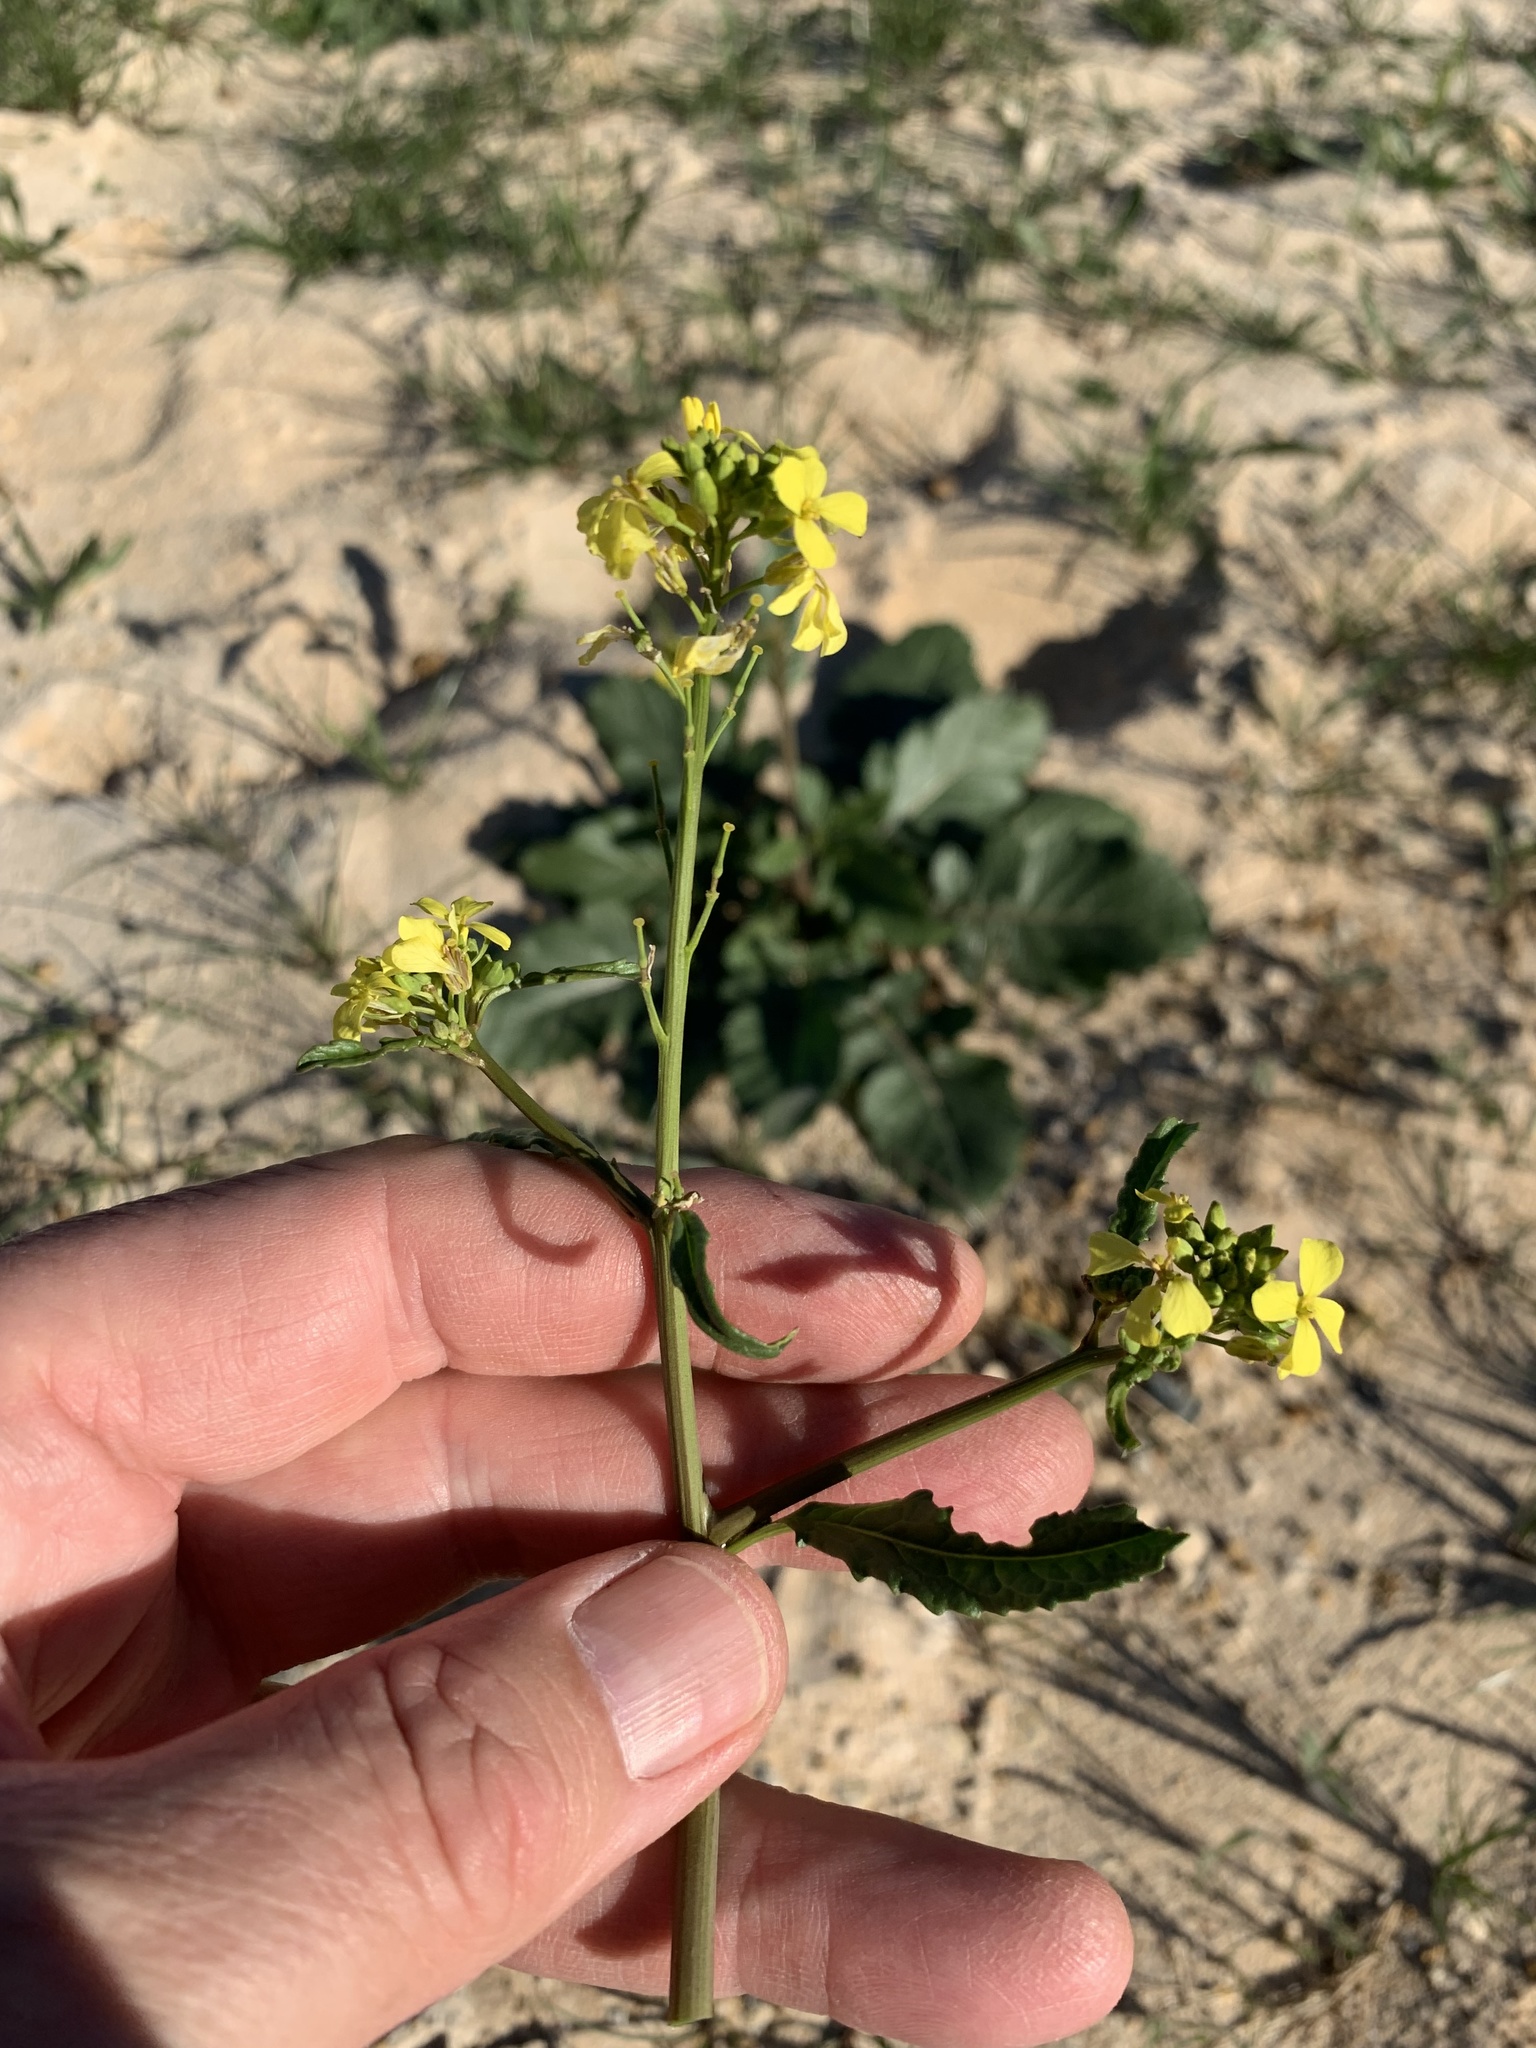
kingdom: Plantae
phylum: Tracheophyta
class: Magnoliopsida
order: Brassicales
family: Brassicaceae
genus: Rapistrum
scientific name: Rapistrum rugosum
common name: Annual bastardcabbage
